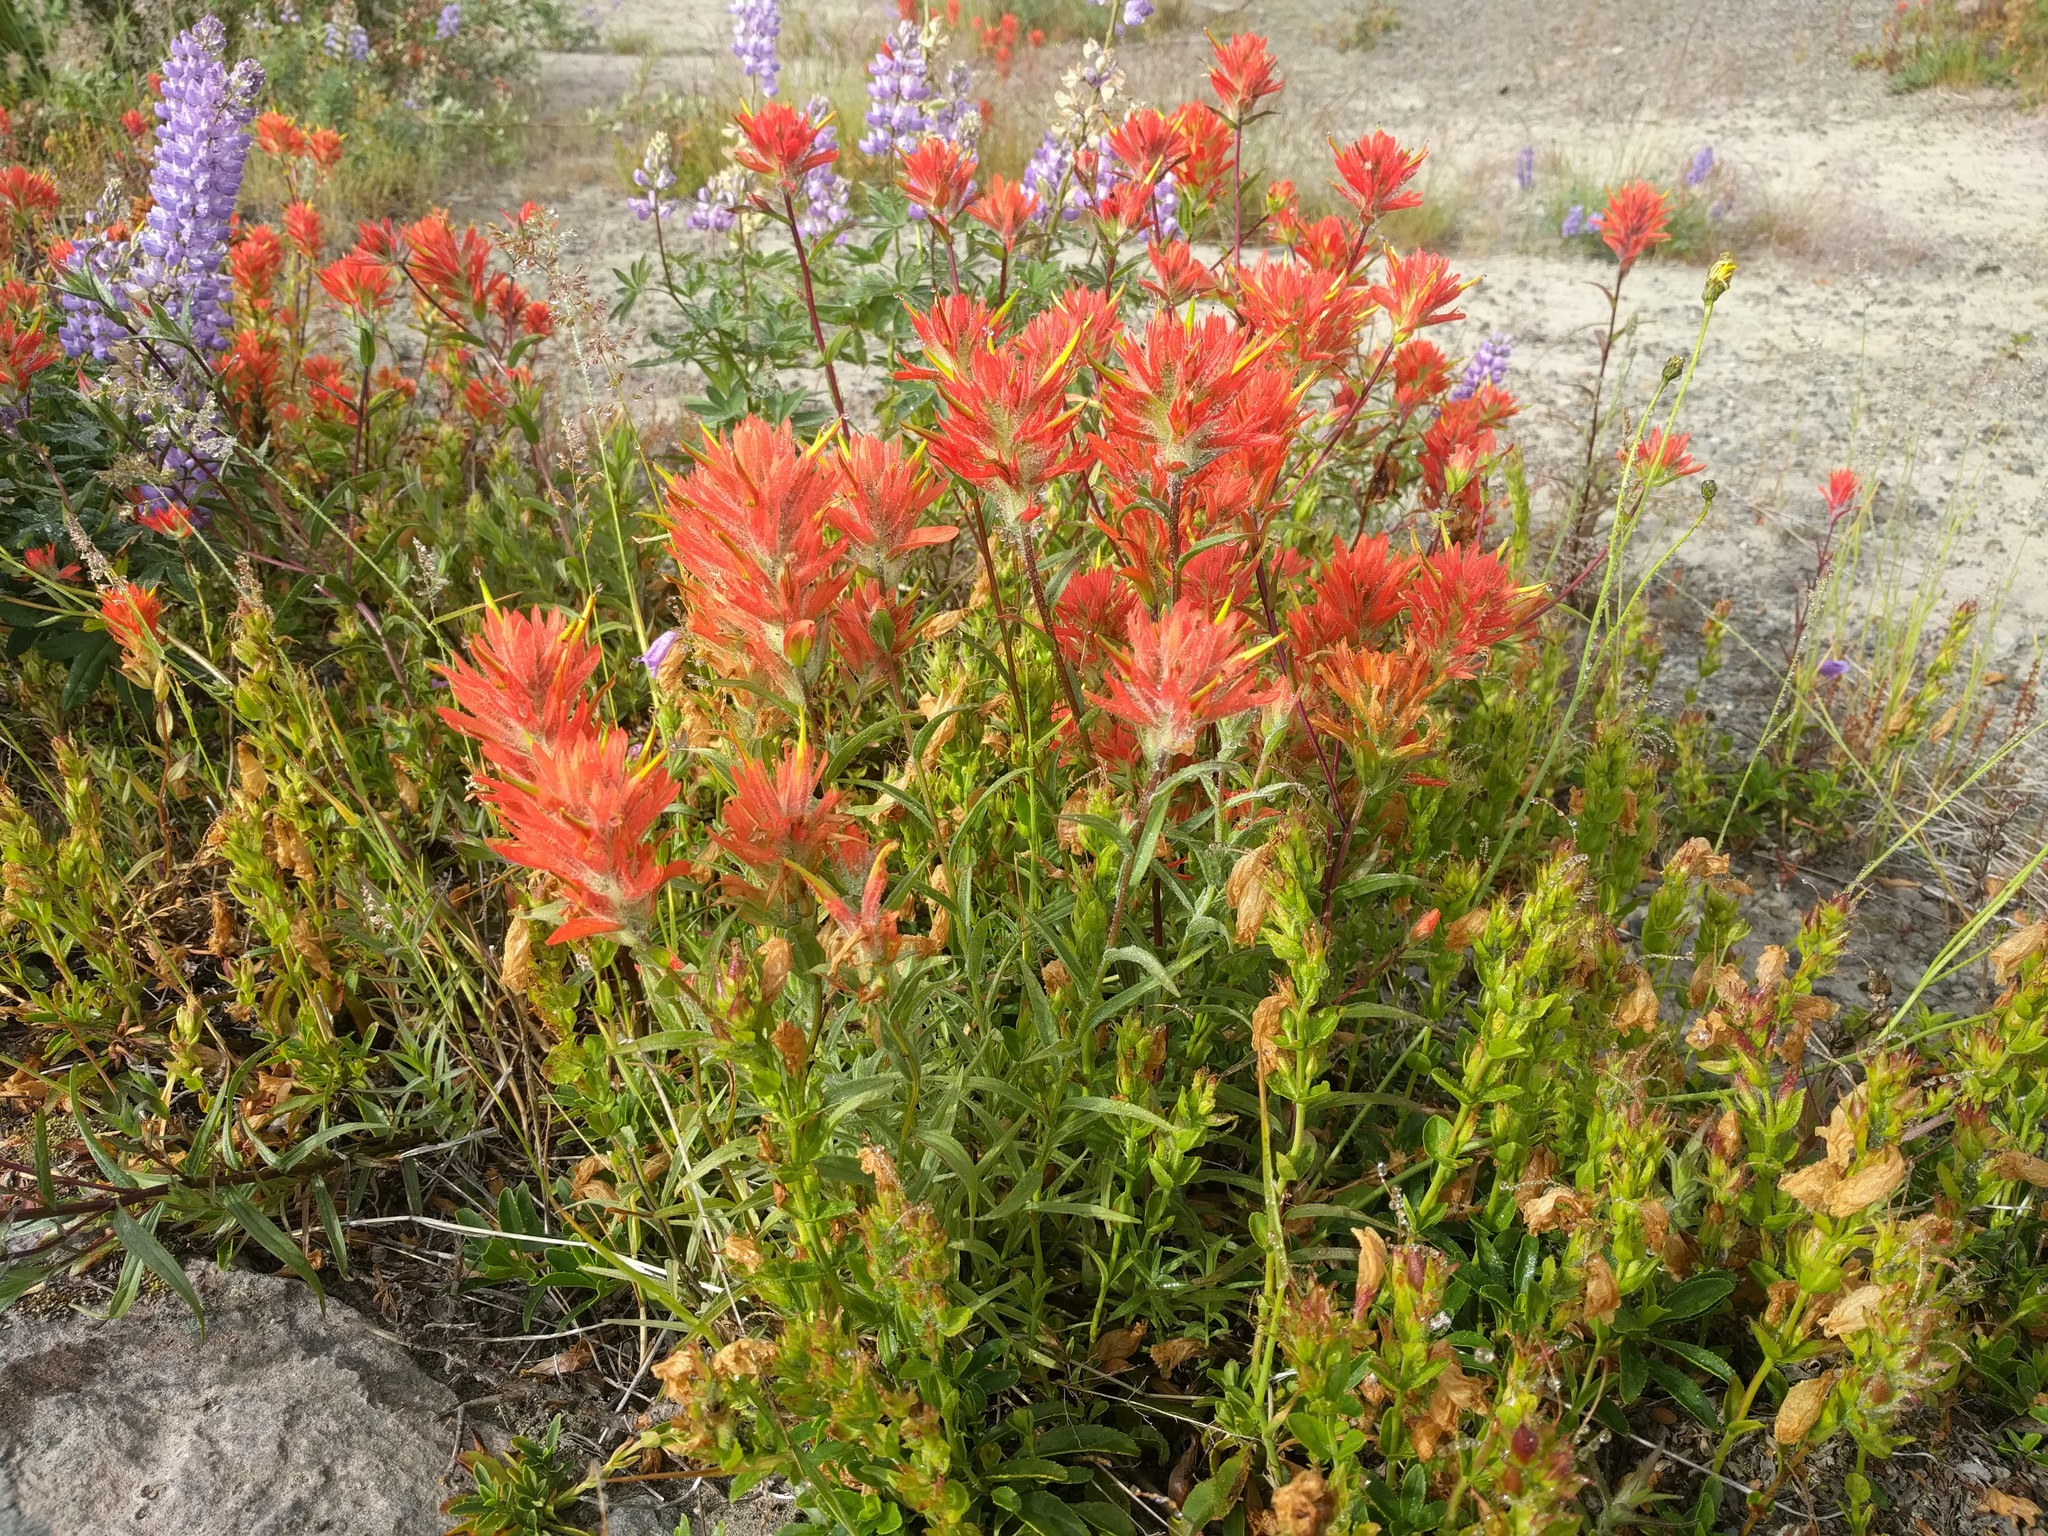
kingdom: Plantae
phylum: Tracheophyta
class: Magnoliopsida
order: Lamiales
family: Orobanchaceae
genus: Castilleja
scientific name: Castilleja miniata
